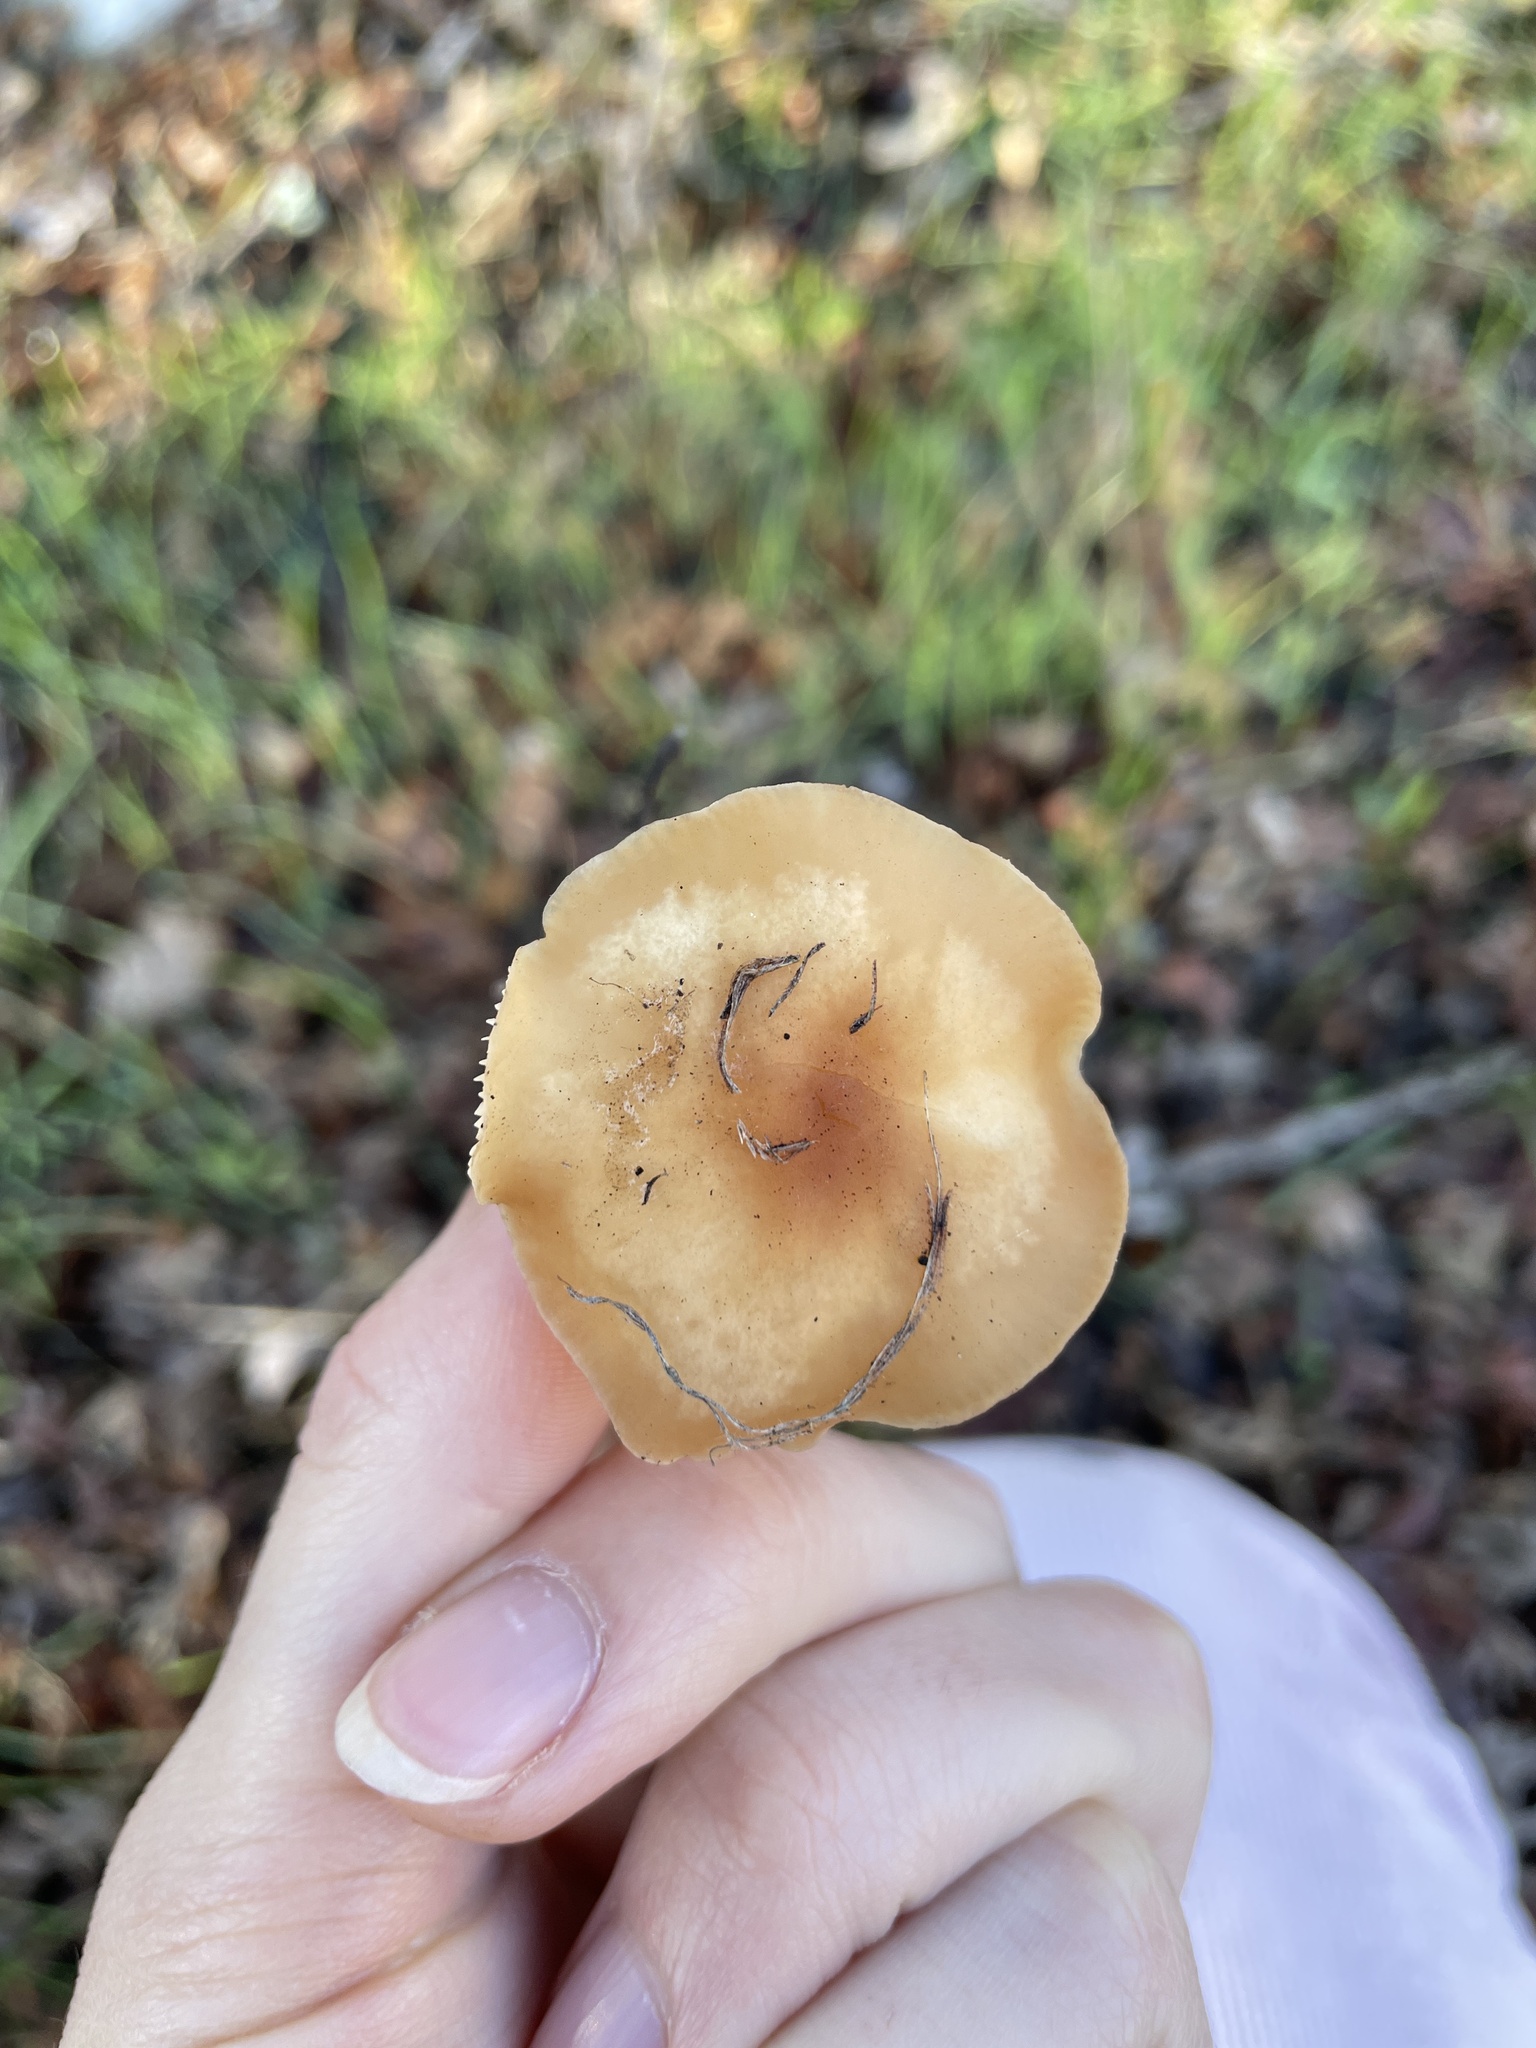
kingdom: Fungi
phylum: Basidiomycota
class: Agaricomycetes
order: Agaricales
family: Omphalotaceae
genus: Gymnopus
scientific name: Gymnopus dryophilus
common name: Penny top
